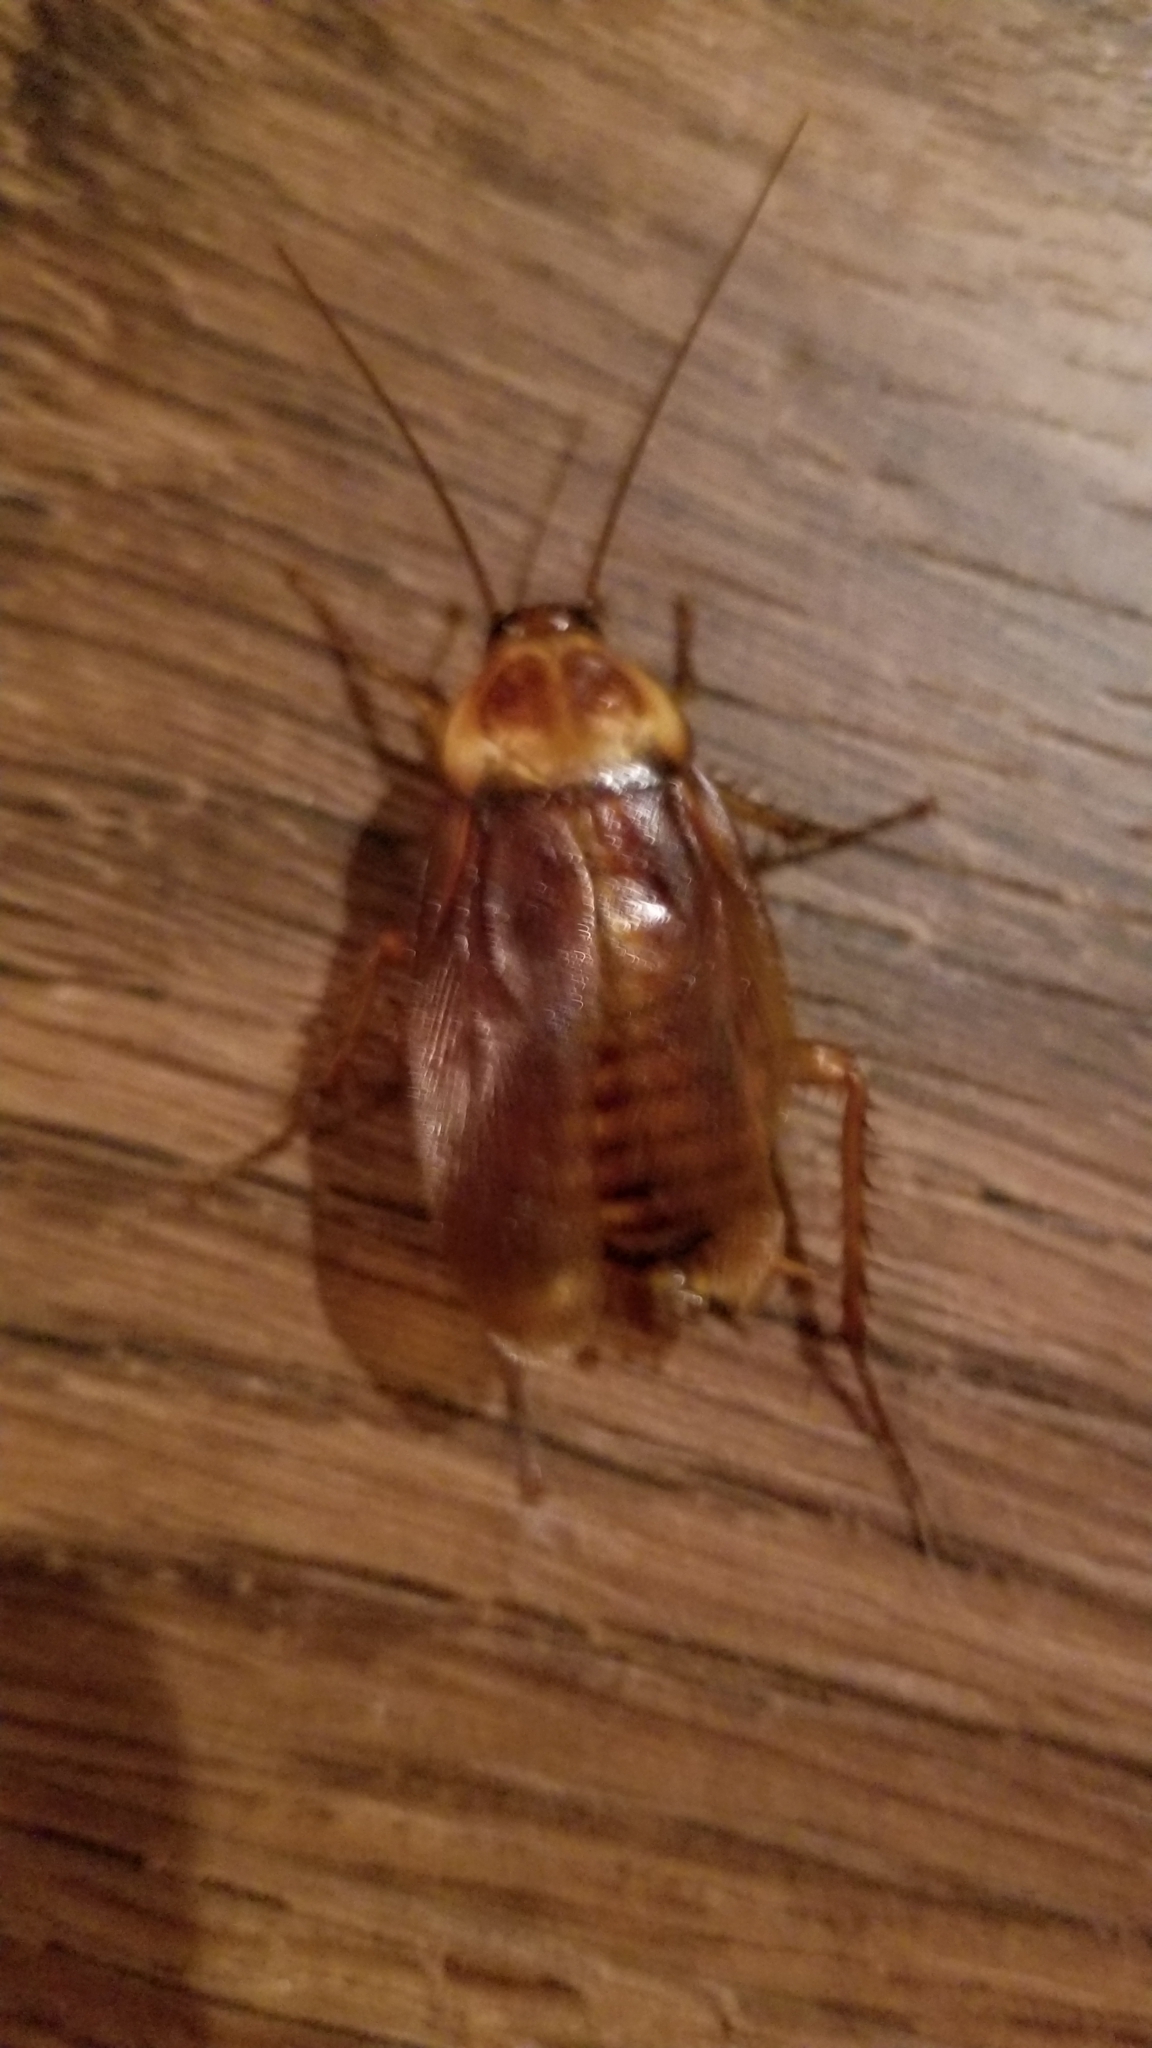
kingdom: Animalia
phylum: Arthropoda
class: Insecta
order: Blattodea
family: Blattidae
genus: Periplaneta
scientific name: Periplaneta americana
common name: American cockroach
